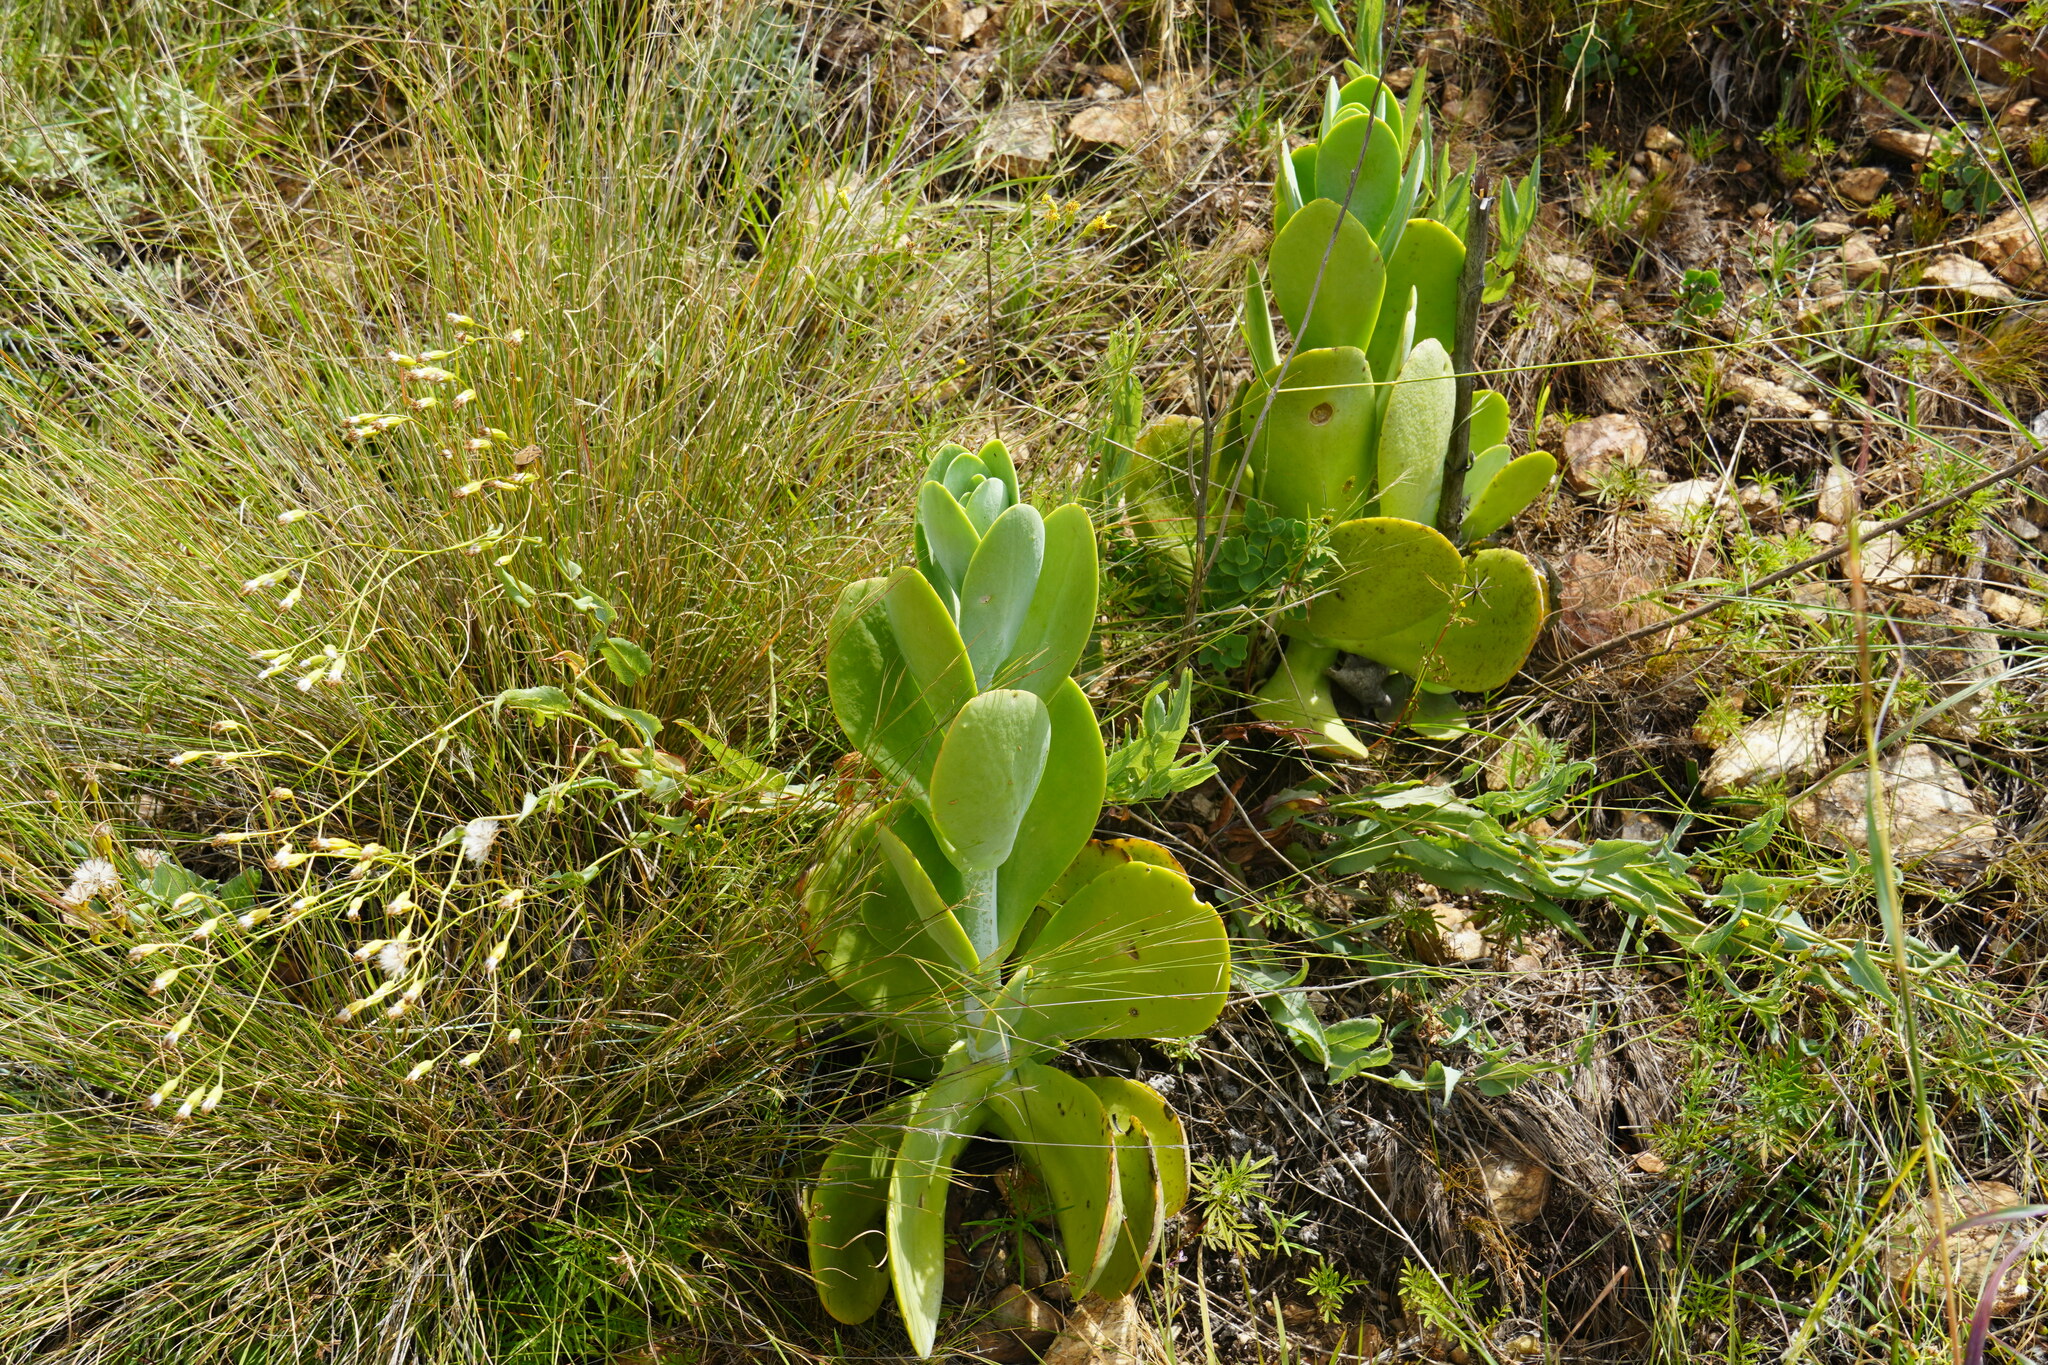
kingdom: Plantae
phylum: Tracheophyta
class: Magnoliopsida
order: Saxifragales
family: Crassulaceae
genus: Kalanchoe
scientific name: Kalanchoe thyrsiflora
